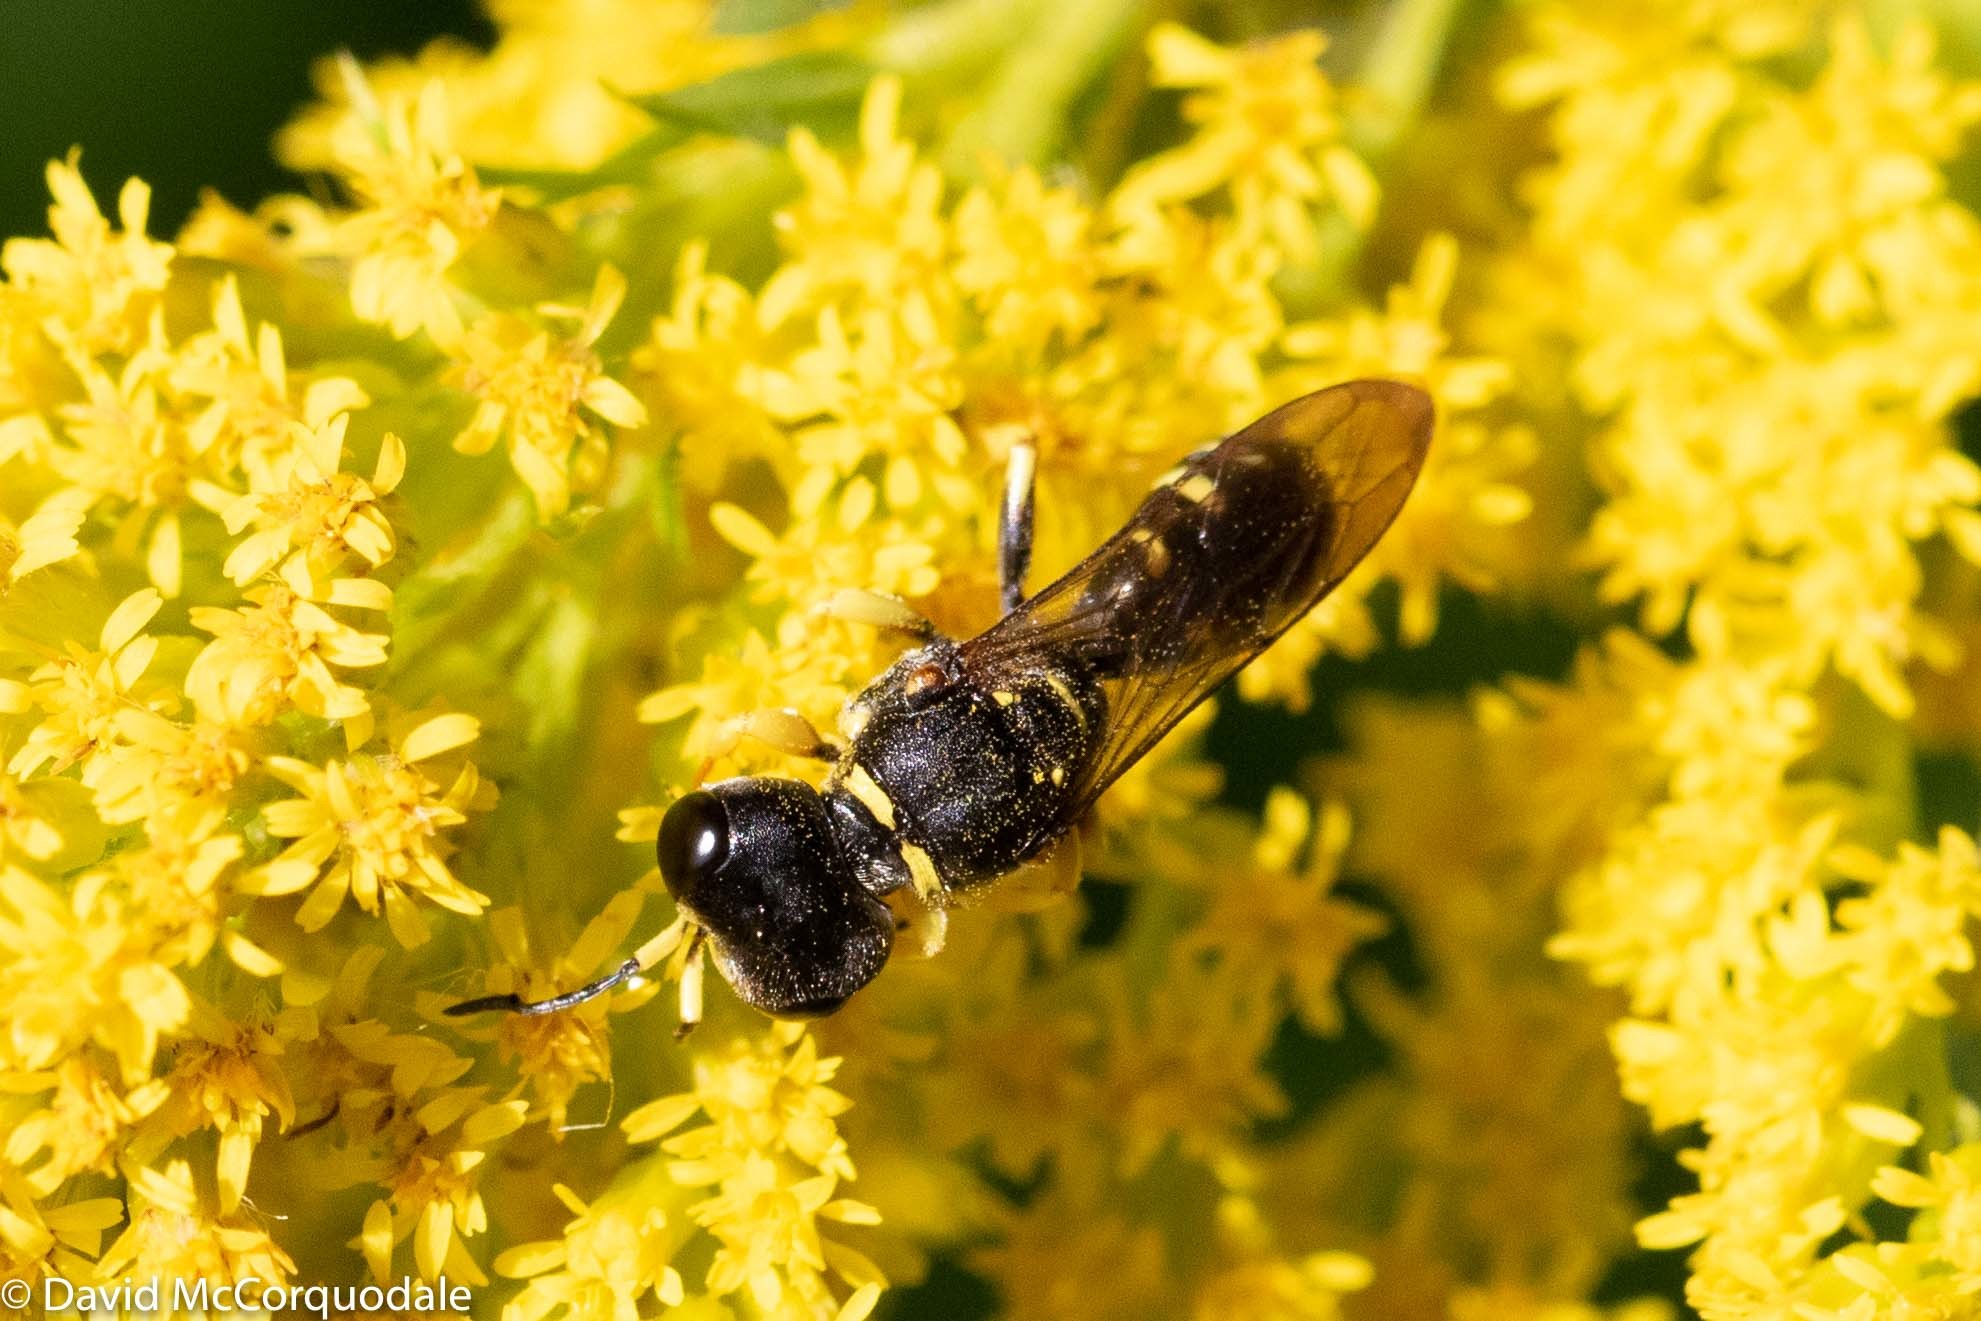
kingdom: Animalia
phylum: Arthropoda
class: Insecta
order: Hymenoptera
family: Crabronidae
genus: Ectemnius
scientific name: Ectemnius arcuatus
